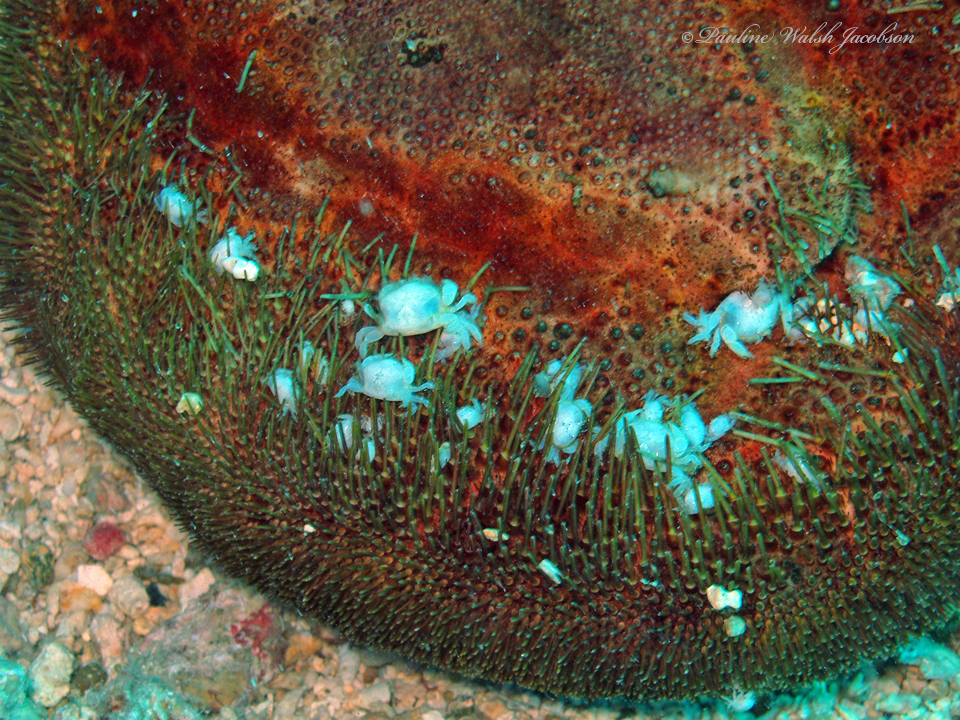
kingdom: Animalia
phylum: Arthropoda
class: Malacostraca
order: Decapoda
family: Pinnotheridae
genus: Dissodactylus
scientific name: Dissodactylus primitivus
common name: Heart urchin pea crab
